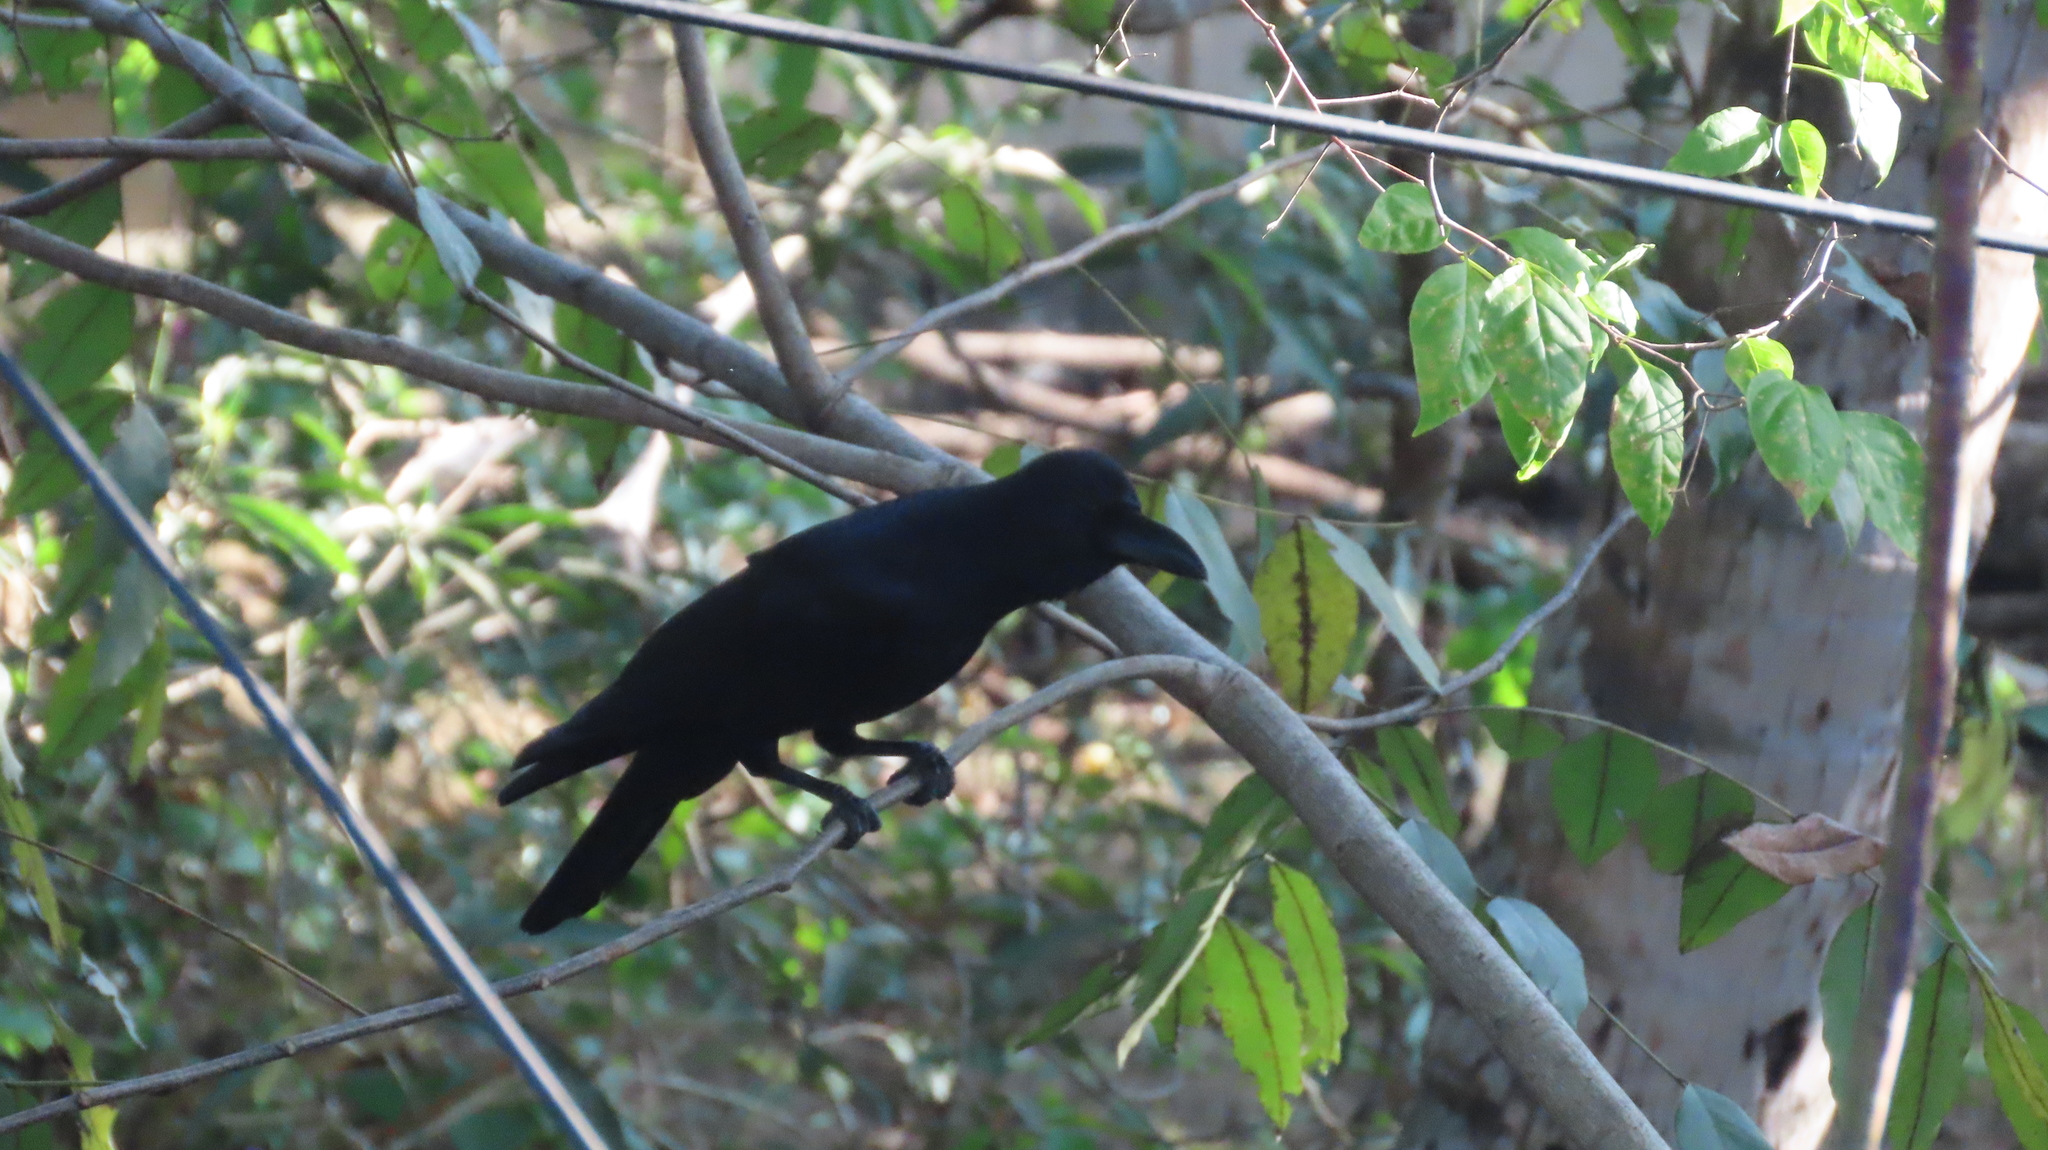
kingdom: Animalia
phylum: Chordata
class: Aves
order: Passeriformes
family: Corvidae
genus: Corvus
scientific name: Corvus macrorhynchos
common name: Large-billed crow
